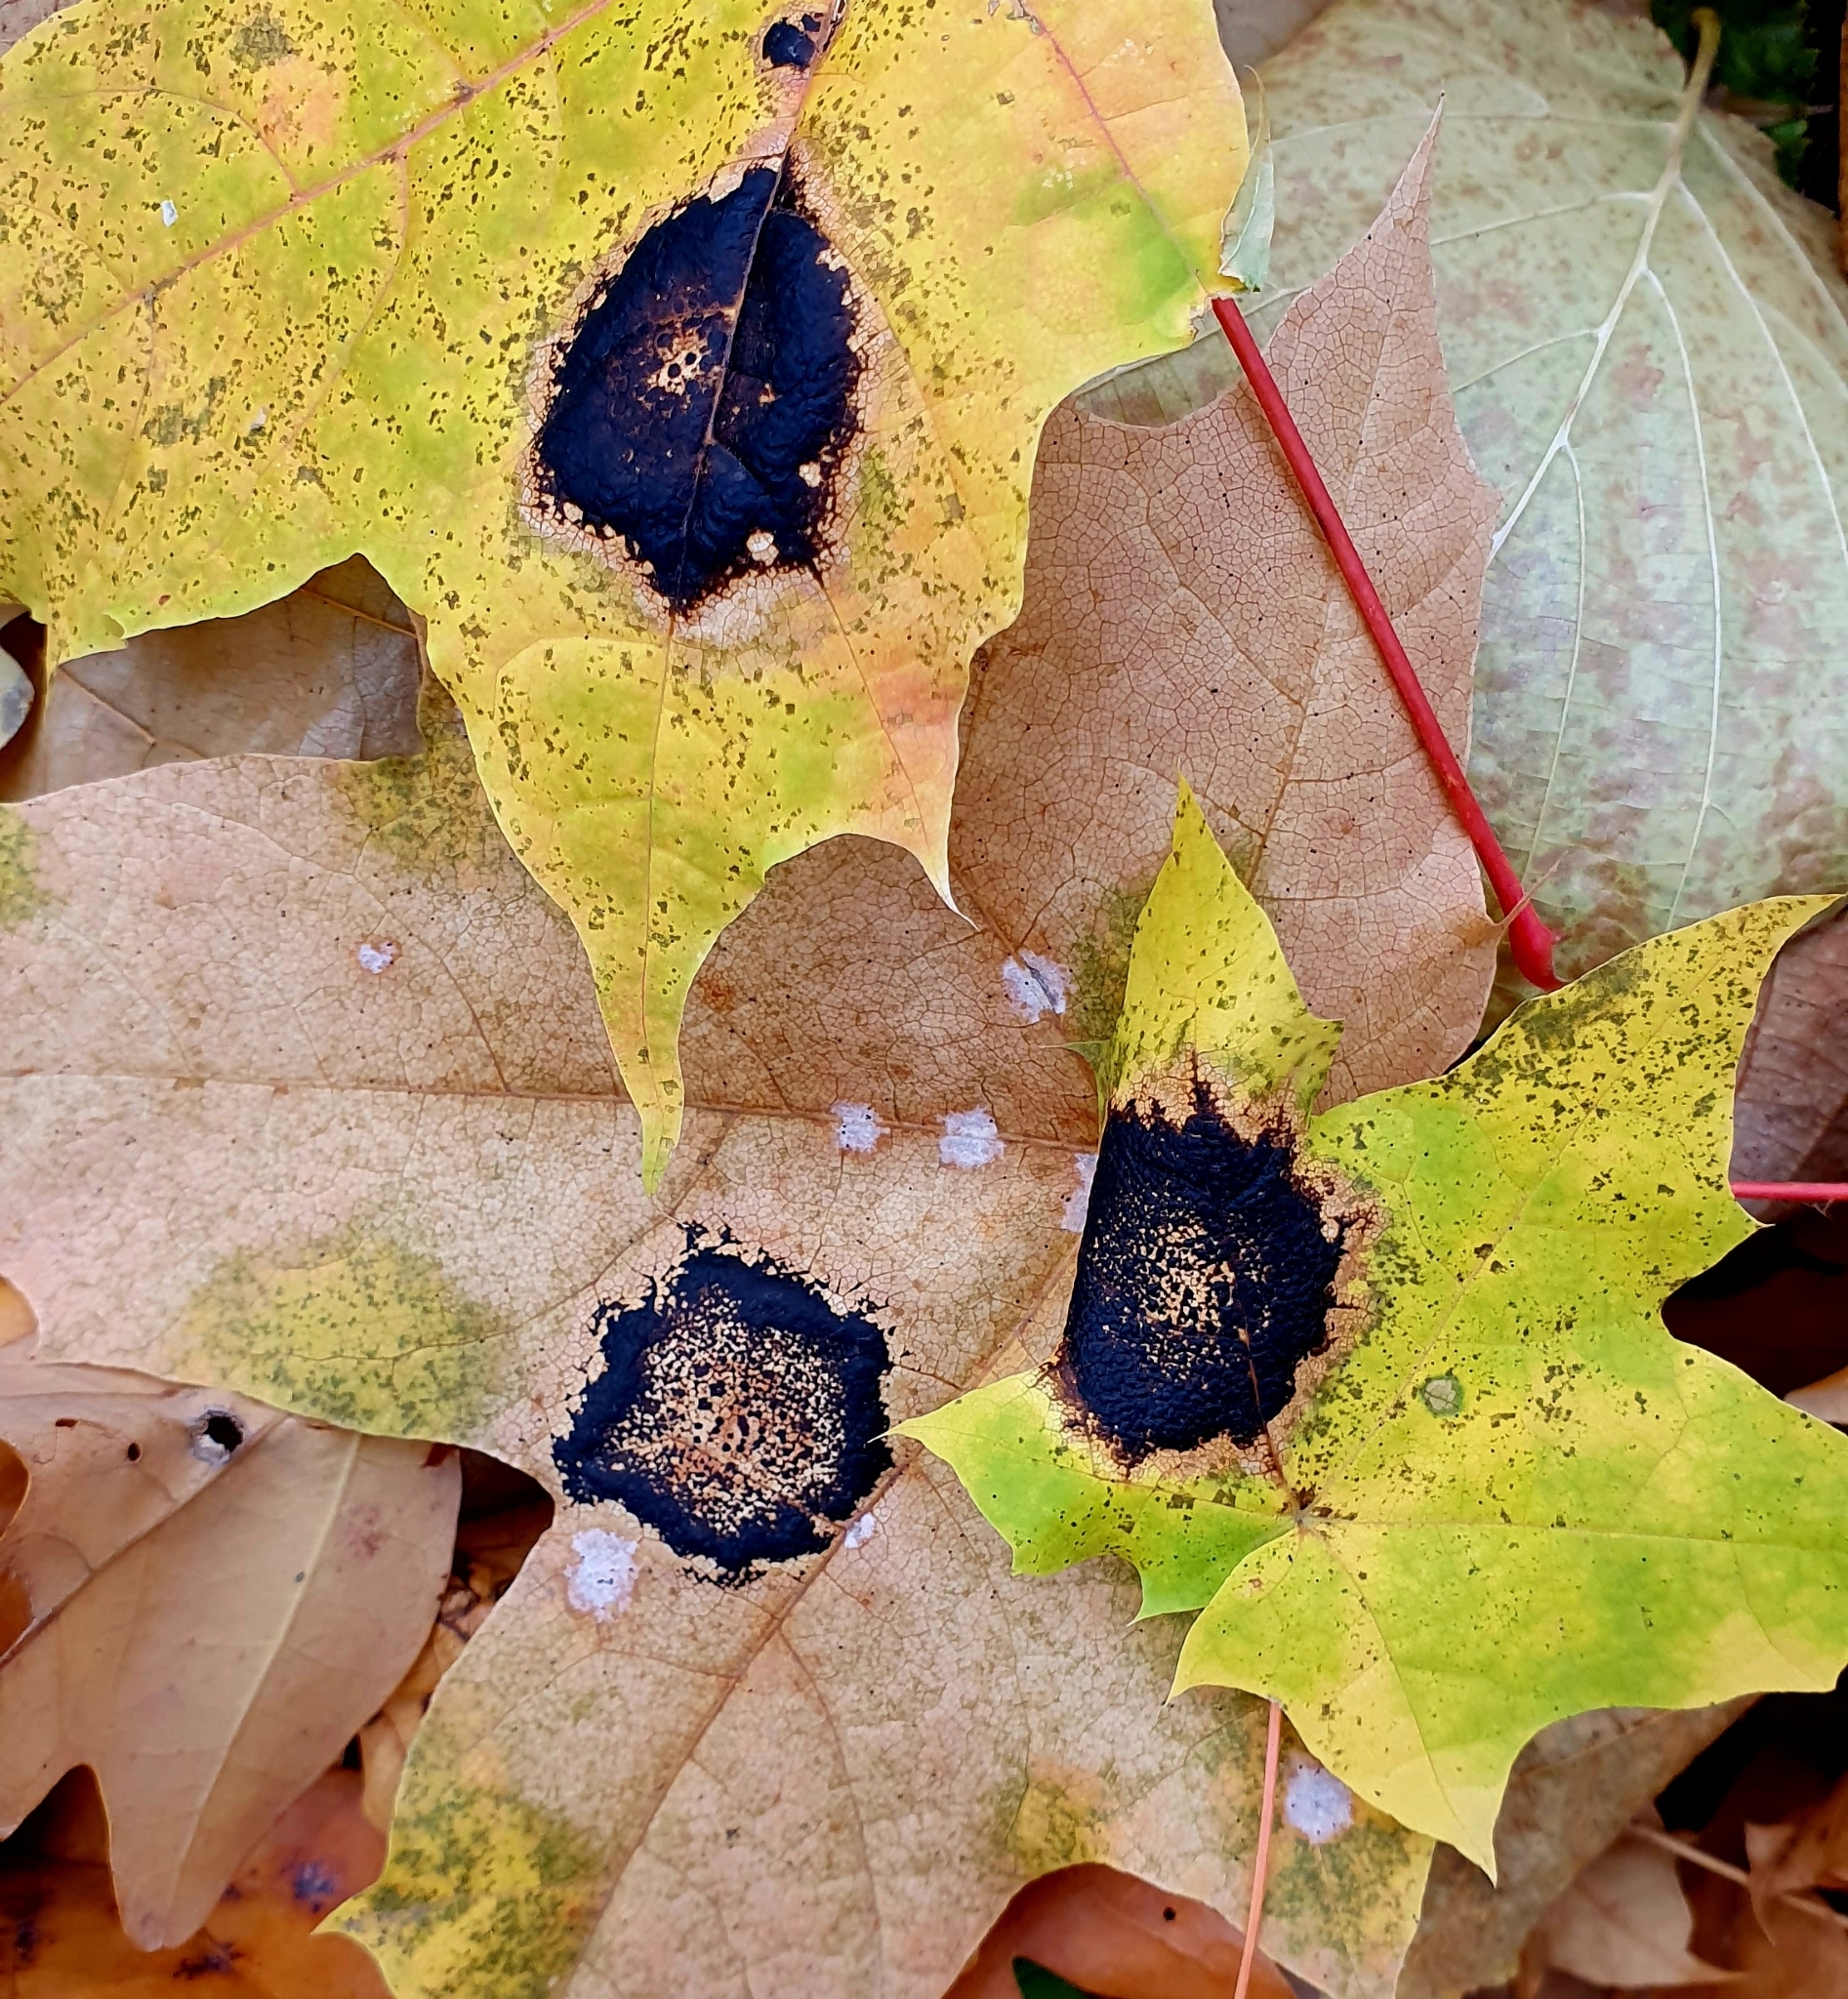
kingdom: Fungi
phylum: Ascomycota
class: Leotiomycetes
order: Rhytismatales
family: Rhytismataceae
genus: Rhytisma
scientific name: Rhytisma acerinum
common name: European tar spot
